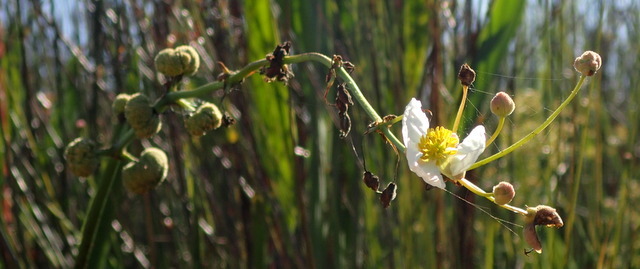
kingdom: Plantae
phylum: Tracheophyta
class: Liliopsida
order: Alismatales
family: Alismataceae
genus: Sagittaria
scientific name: Sagittaria lancifolia
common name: Lance-leaf arrowhead
